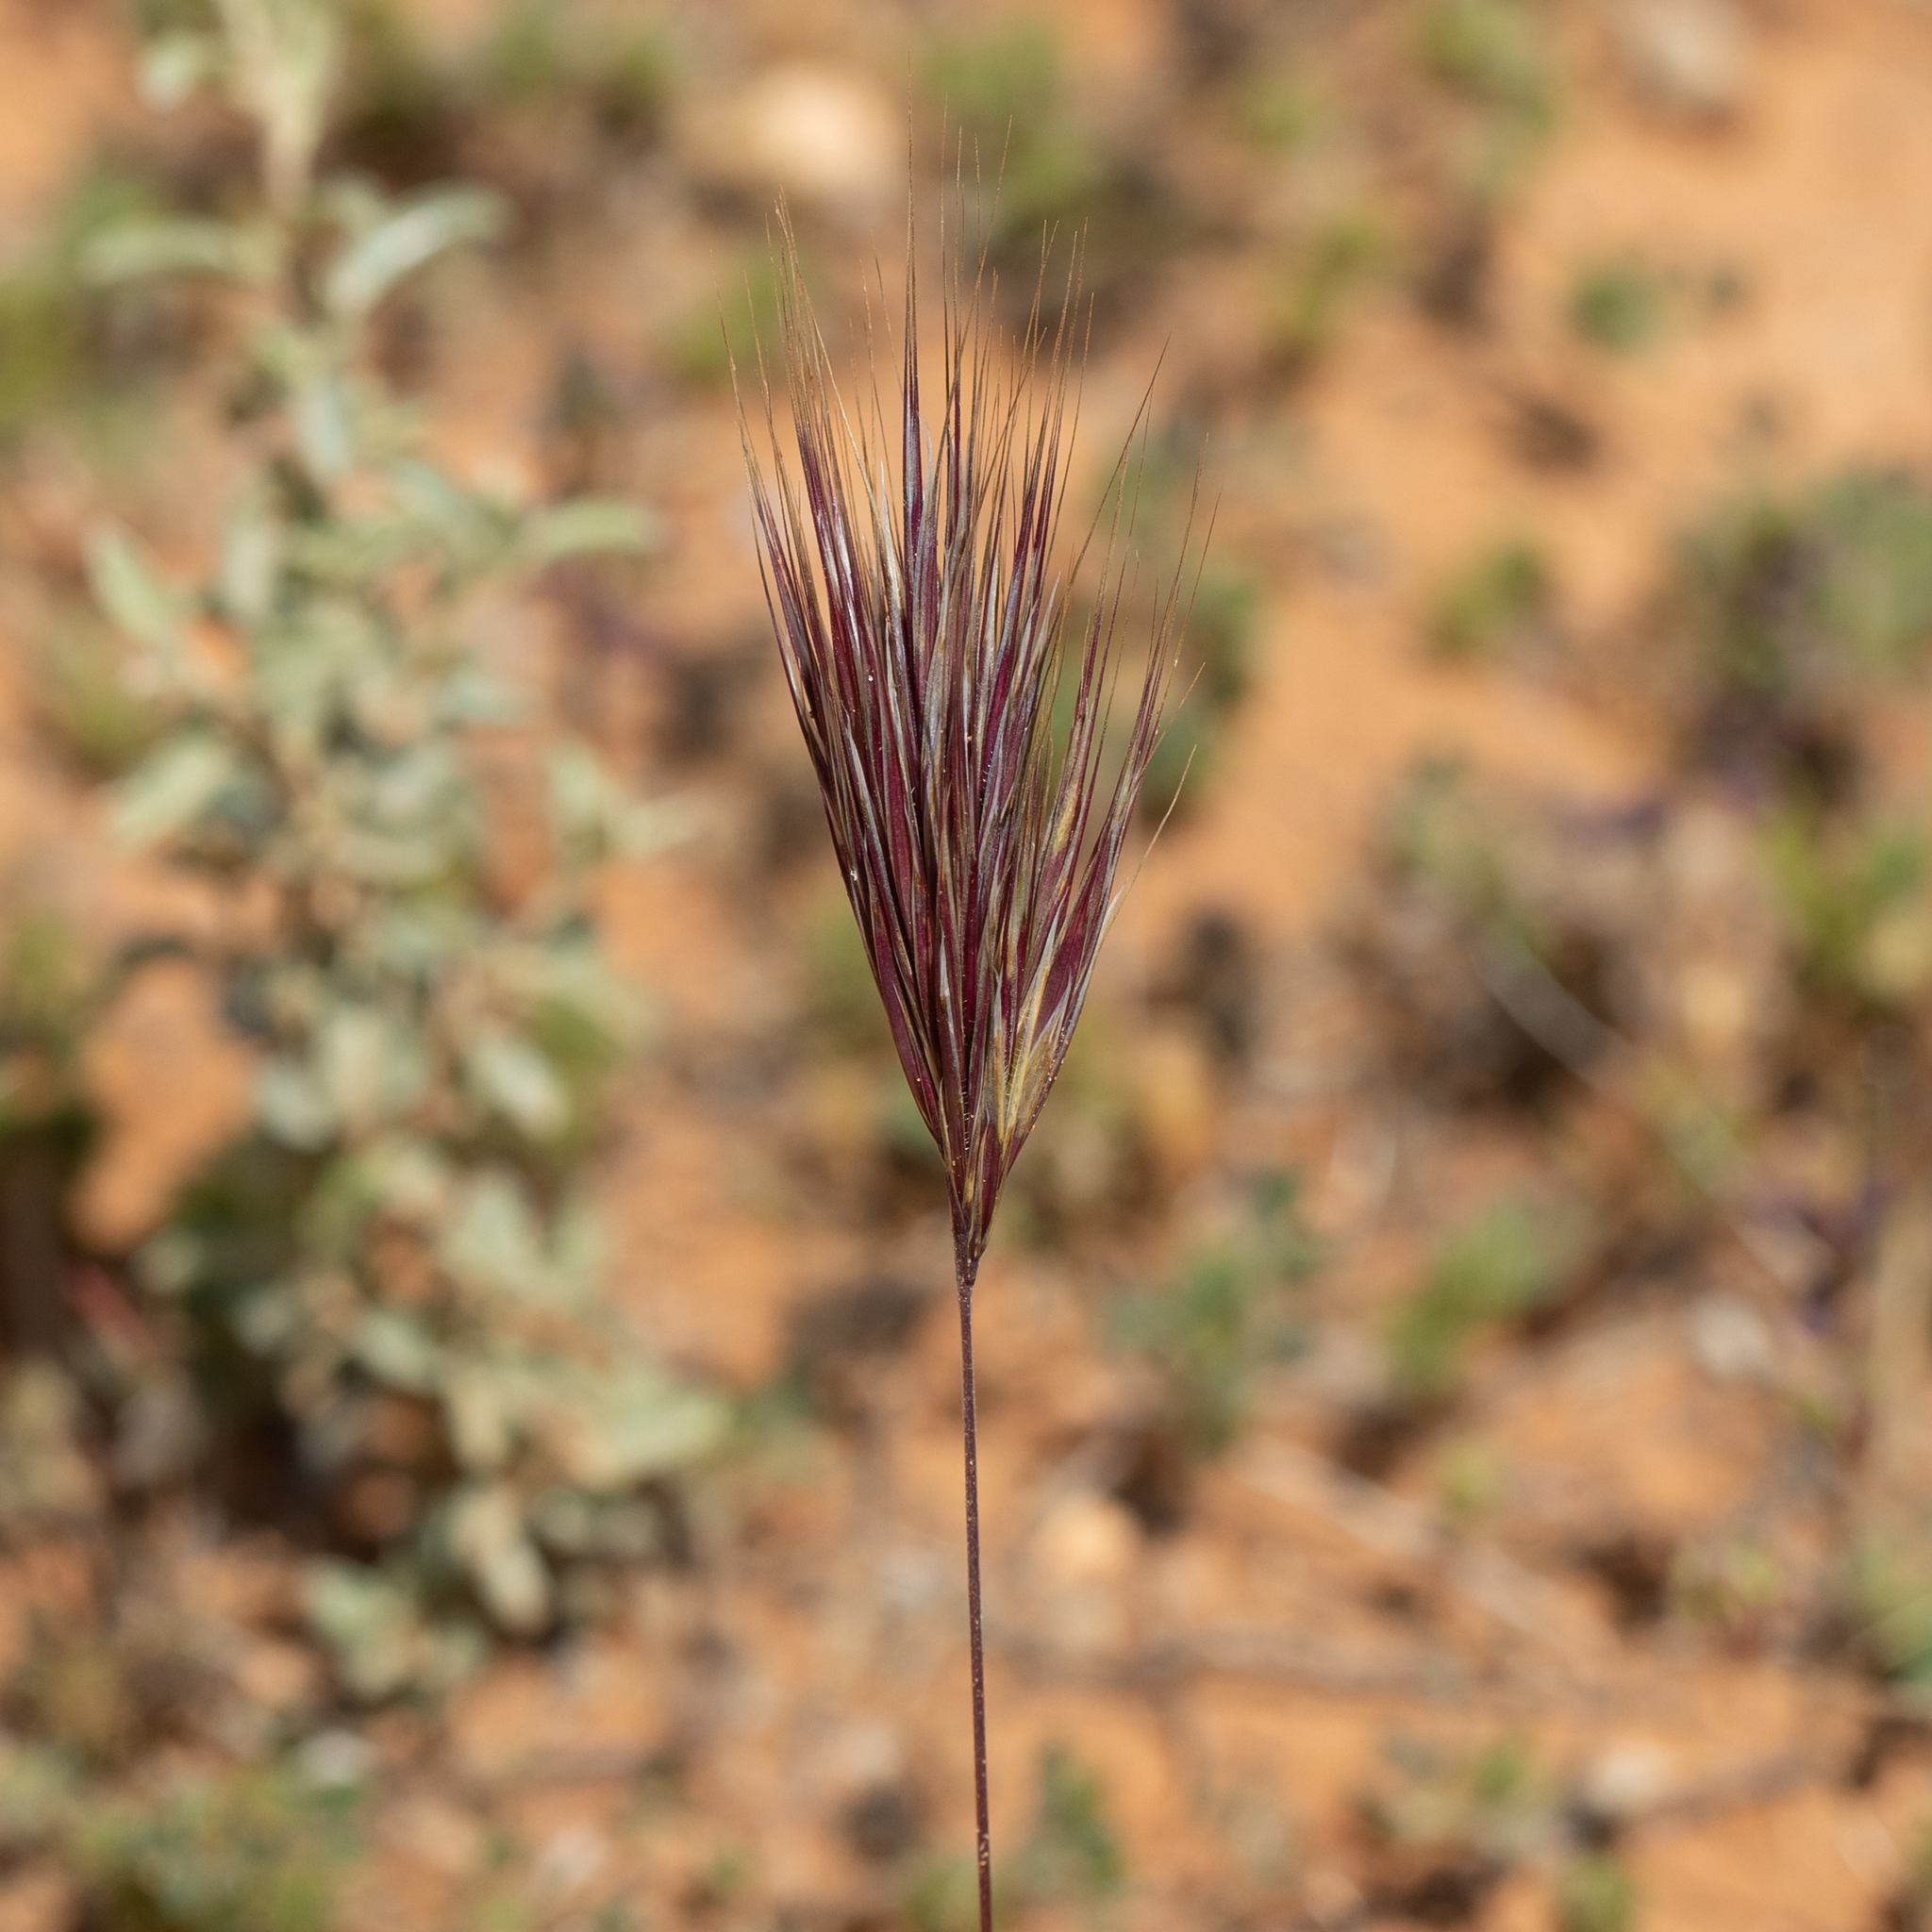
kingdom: Plantae
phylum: Tracheophyta
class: Liliopsida
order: Poales
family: Poaceae
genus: Bromus
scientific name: Bromus rubens
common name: Red brome
